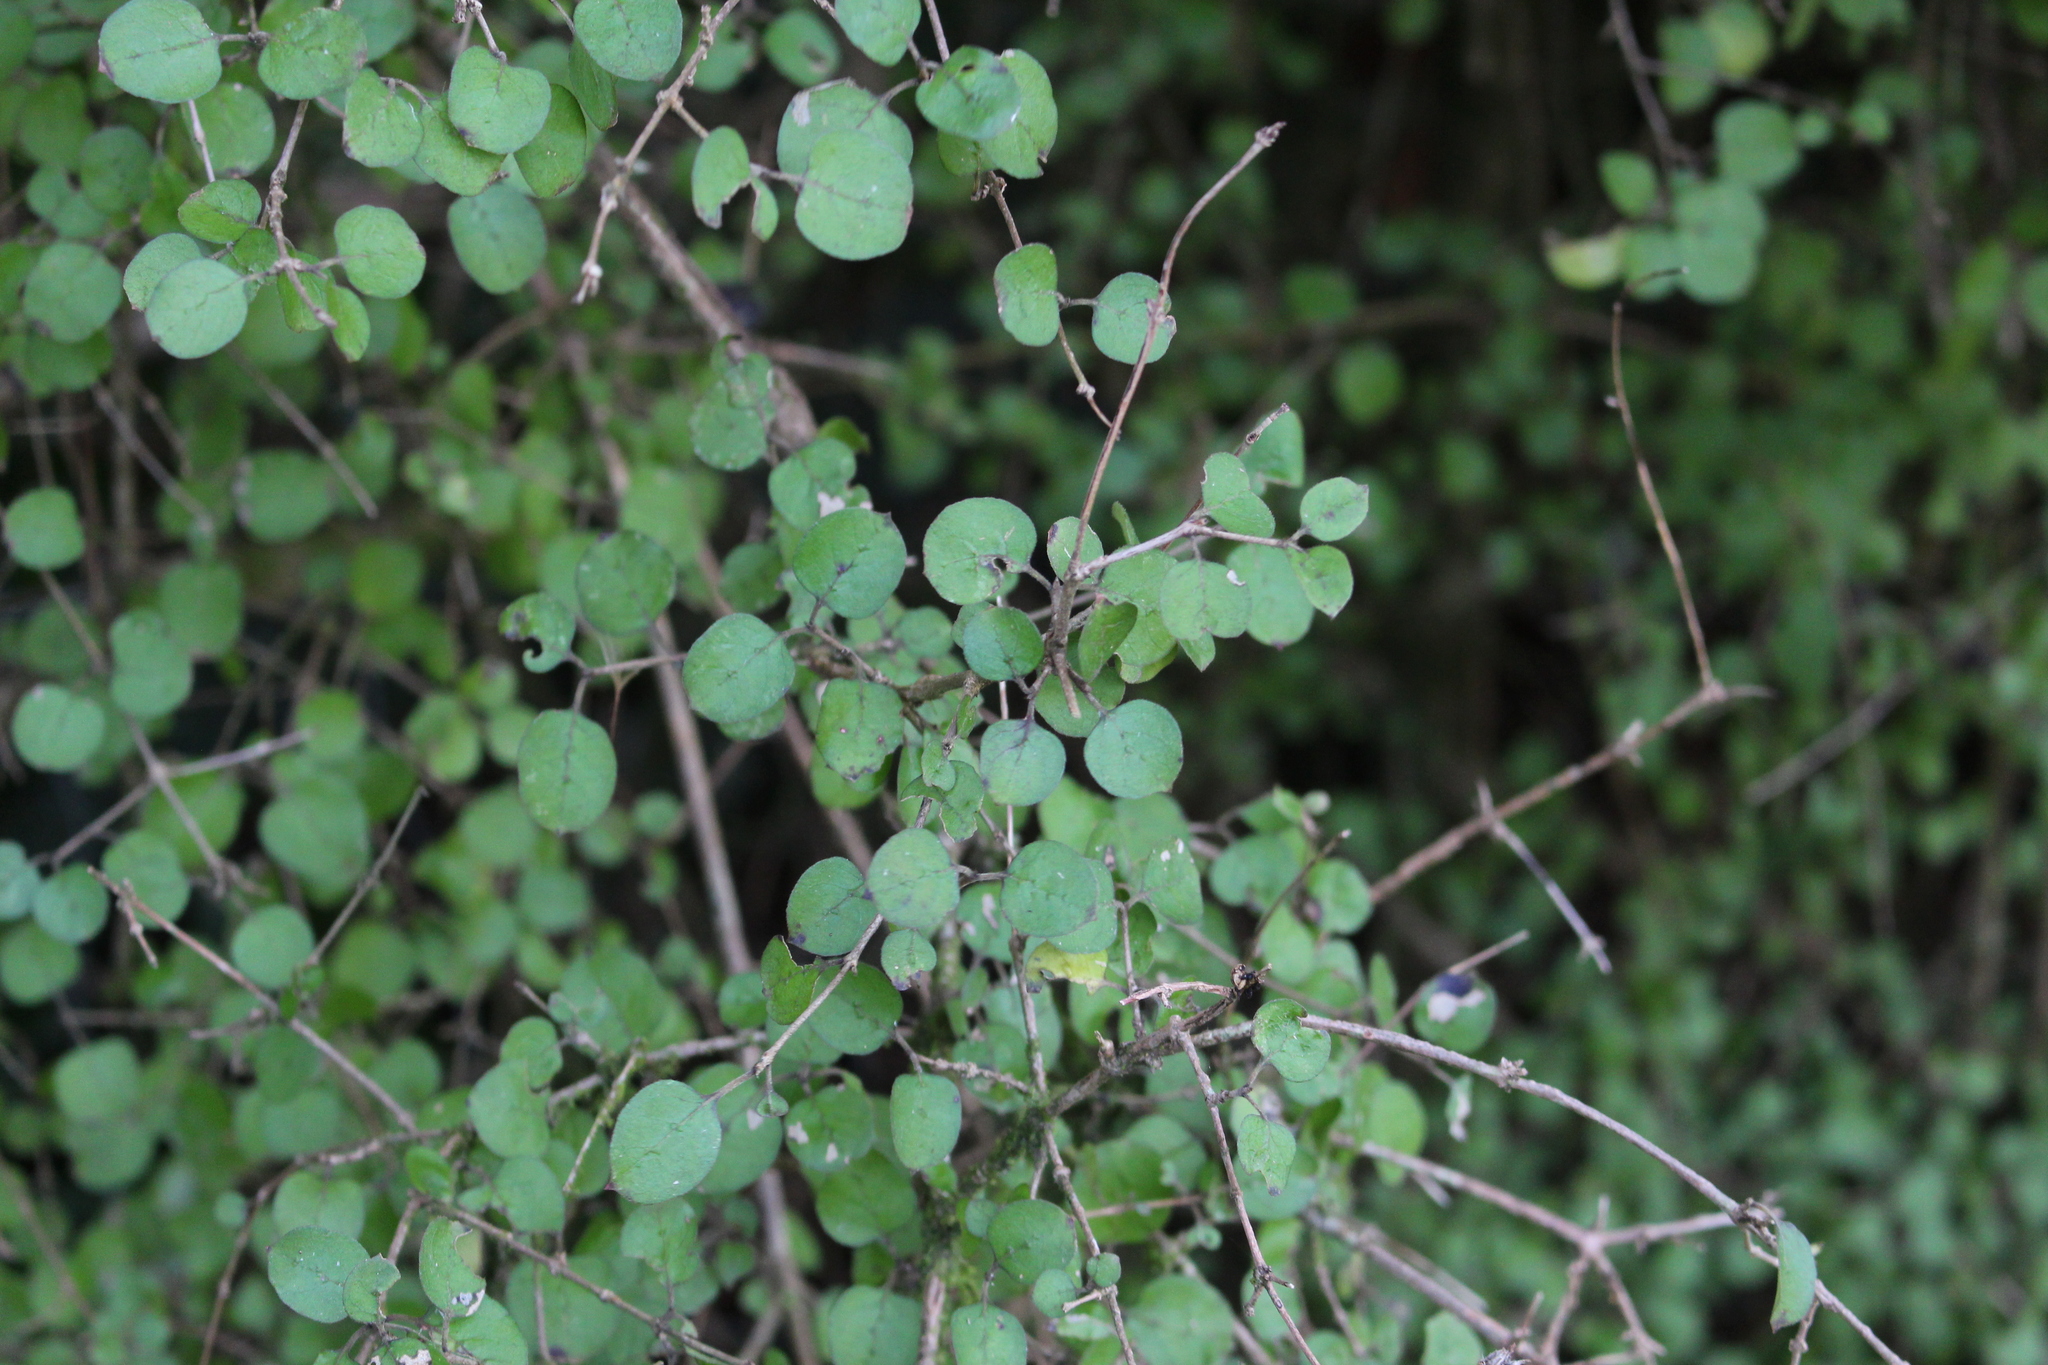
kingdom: Plantae
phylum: Tracheophyta
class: Magnoliopsida
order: Gentianales
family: Rubiaceae
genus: Coprosma
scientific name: Coprosma rotundifolia
